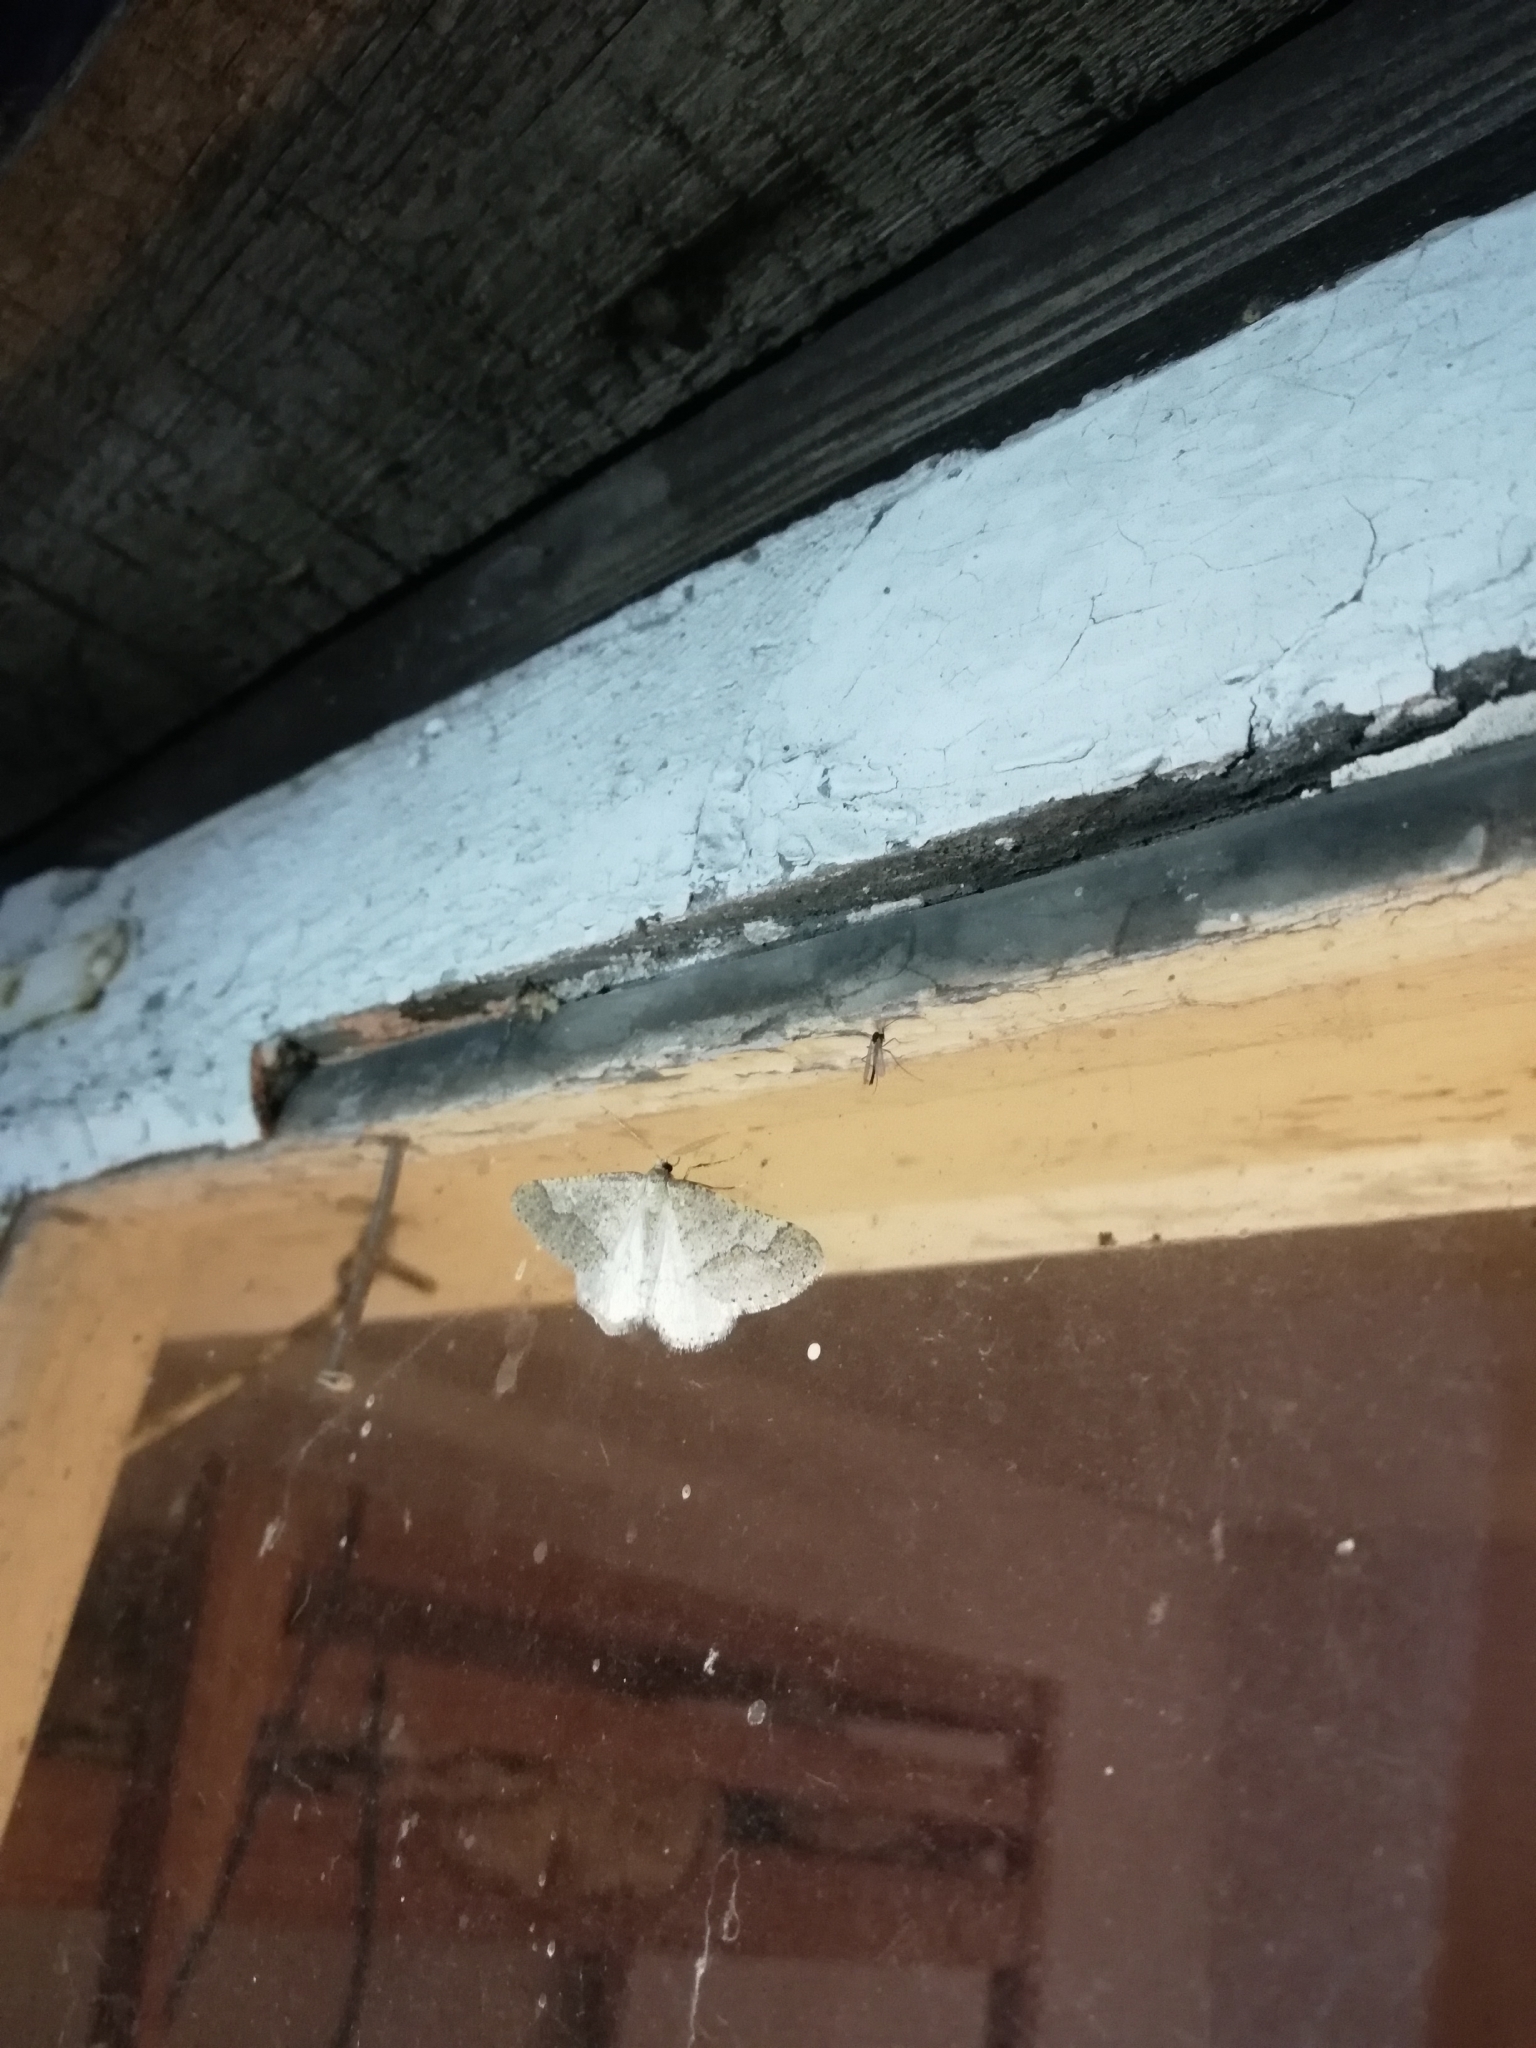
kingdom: Animalia
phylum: Arthropoda
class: Insecta
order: Lepidoptera
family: Geometridae
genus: Agriopis
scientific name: Agriopis marginaria
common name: Dotted border
